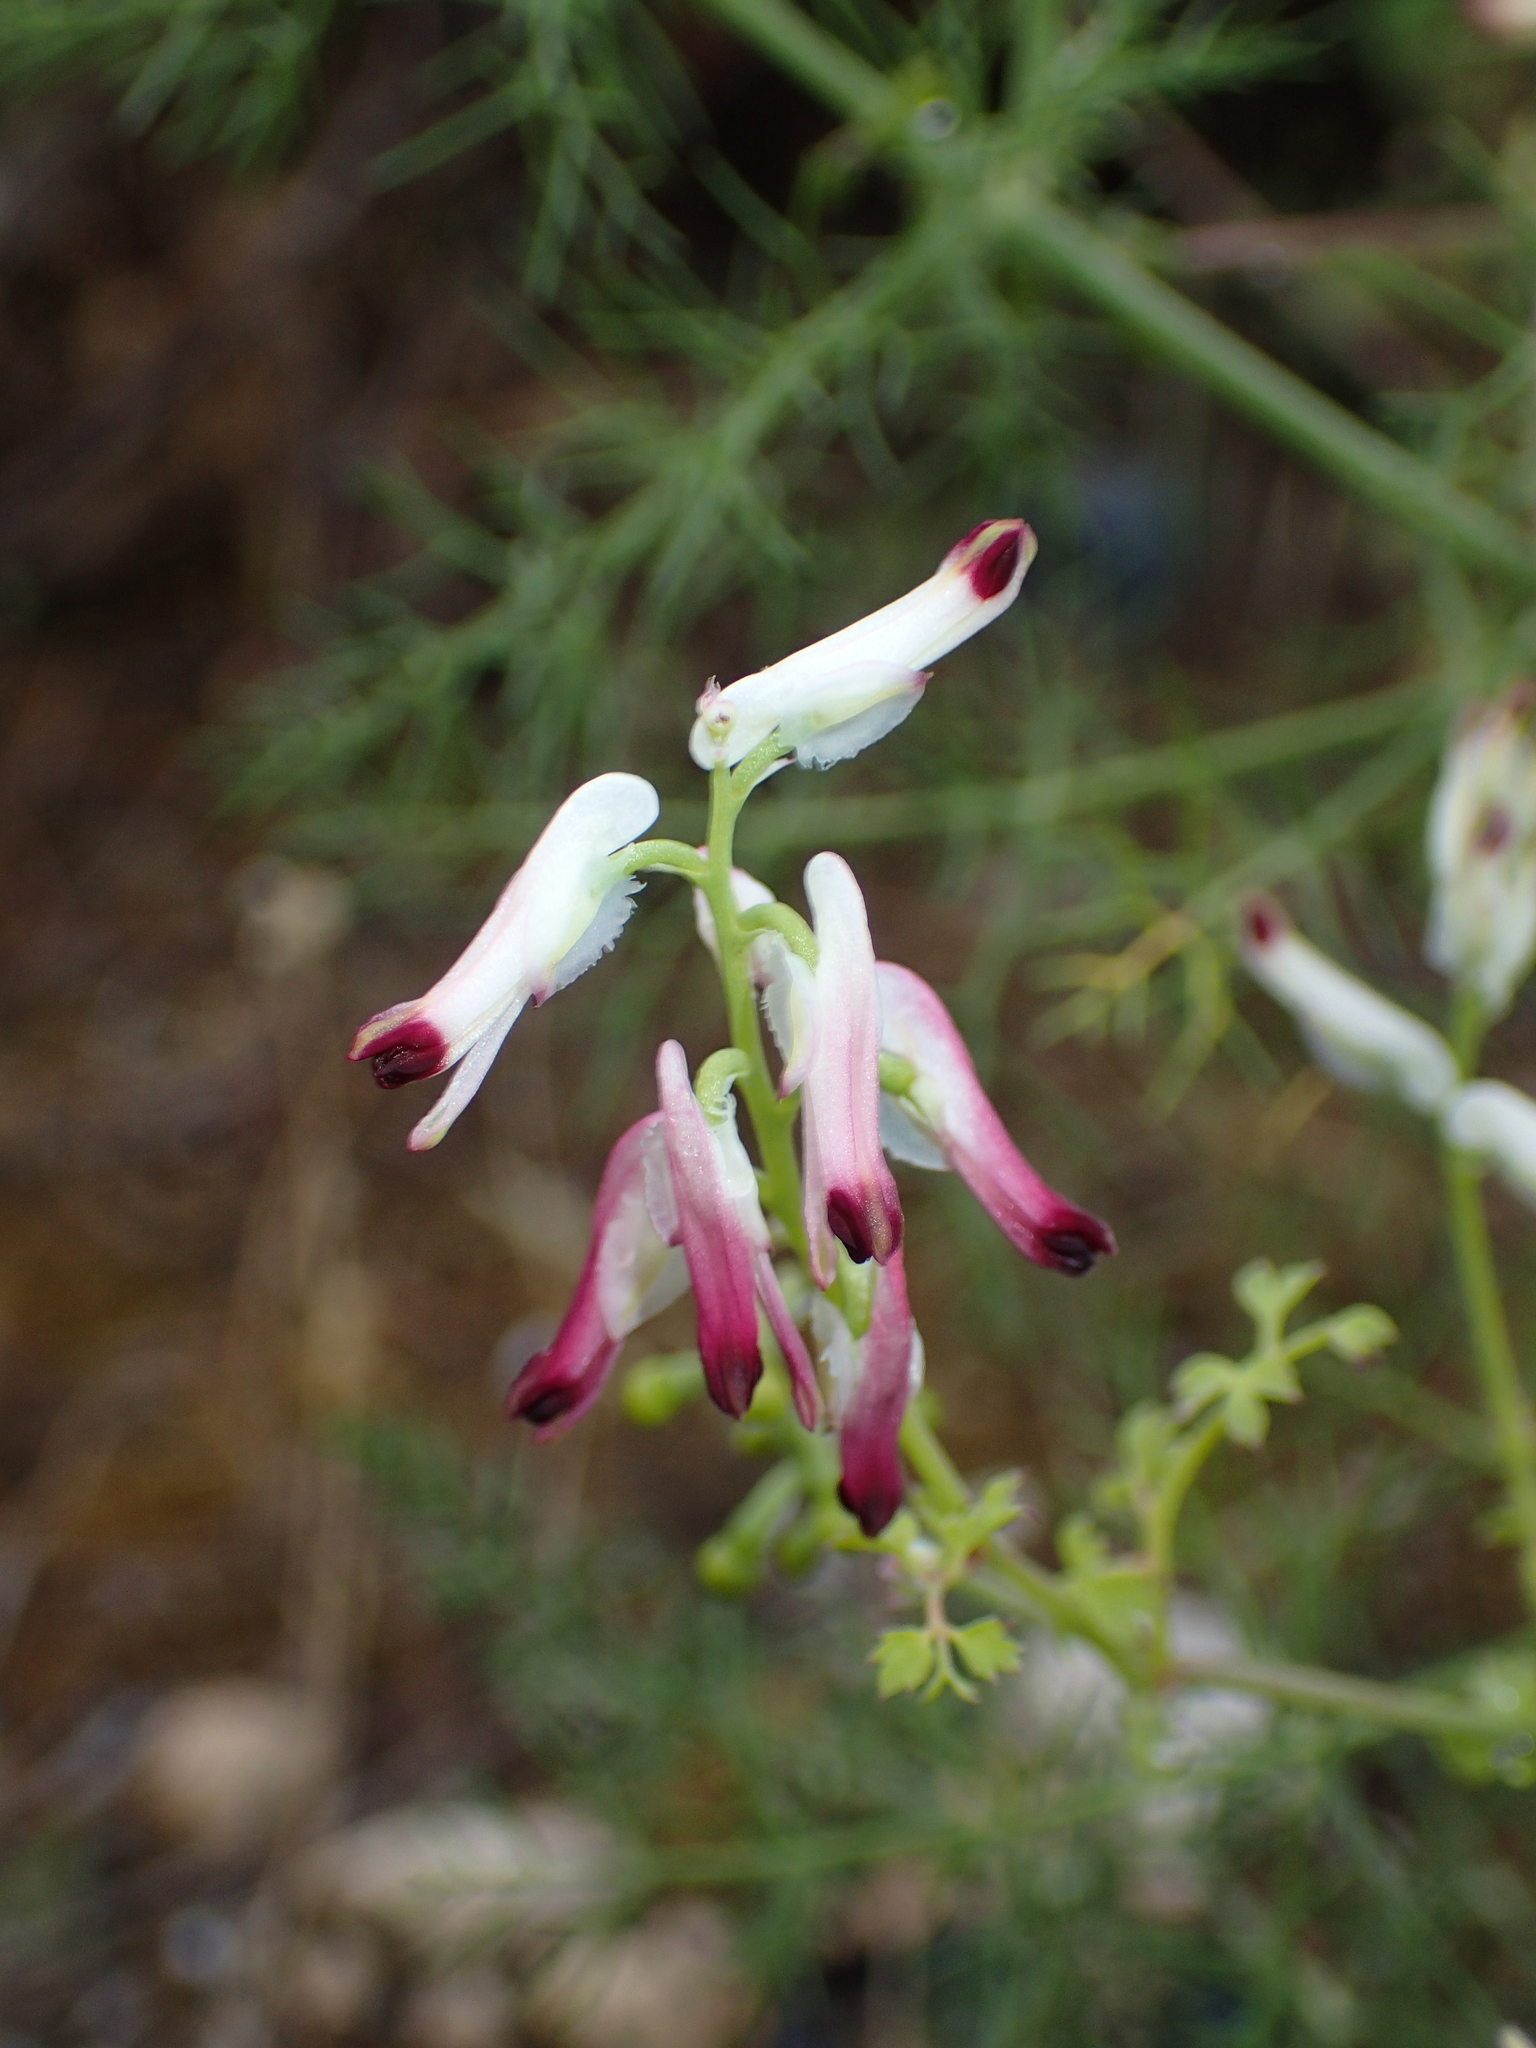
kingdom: Plantae
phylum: Tracheophyta
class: Magnoliopsida
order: Ranunculales
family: Papaveraceae
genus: Fumaria
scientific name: Fumaria capreolata
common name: White ramping-fumitory
